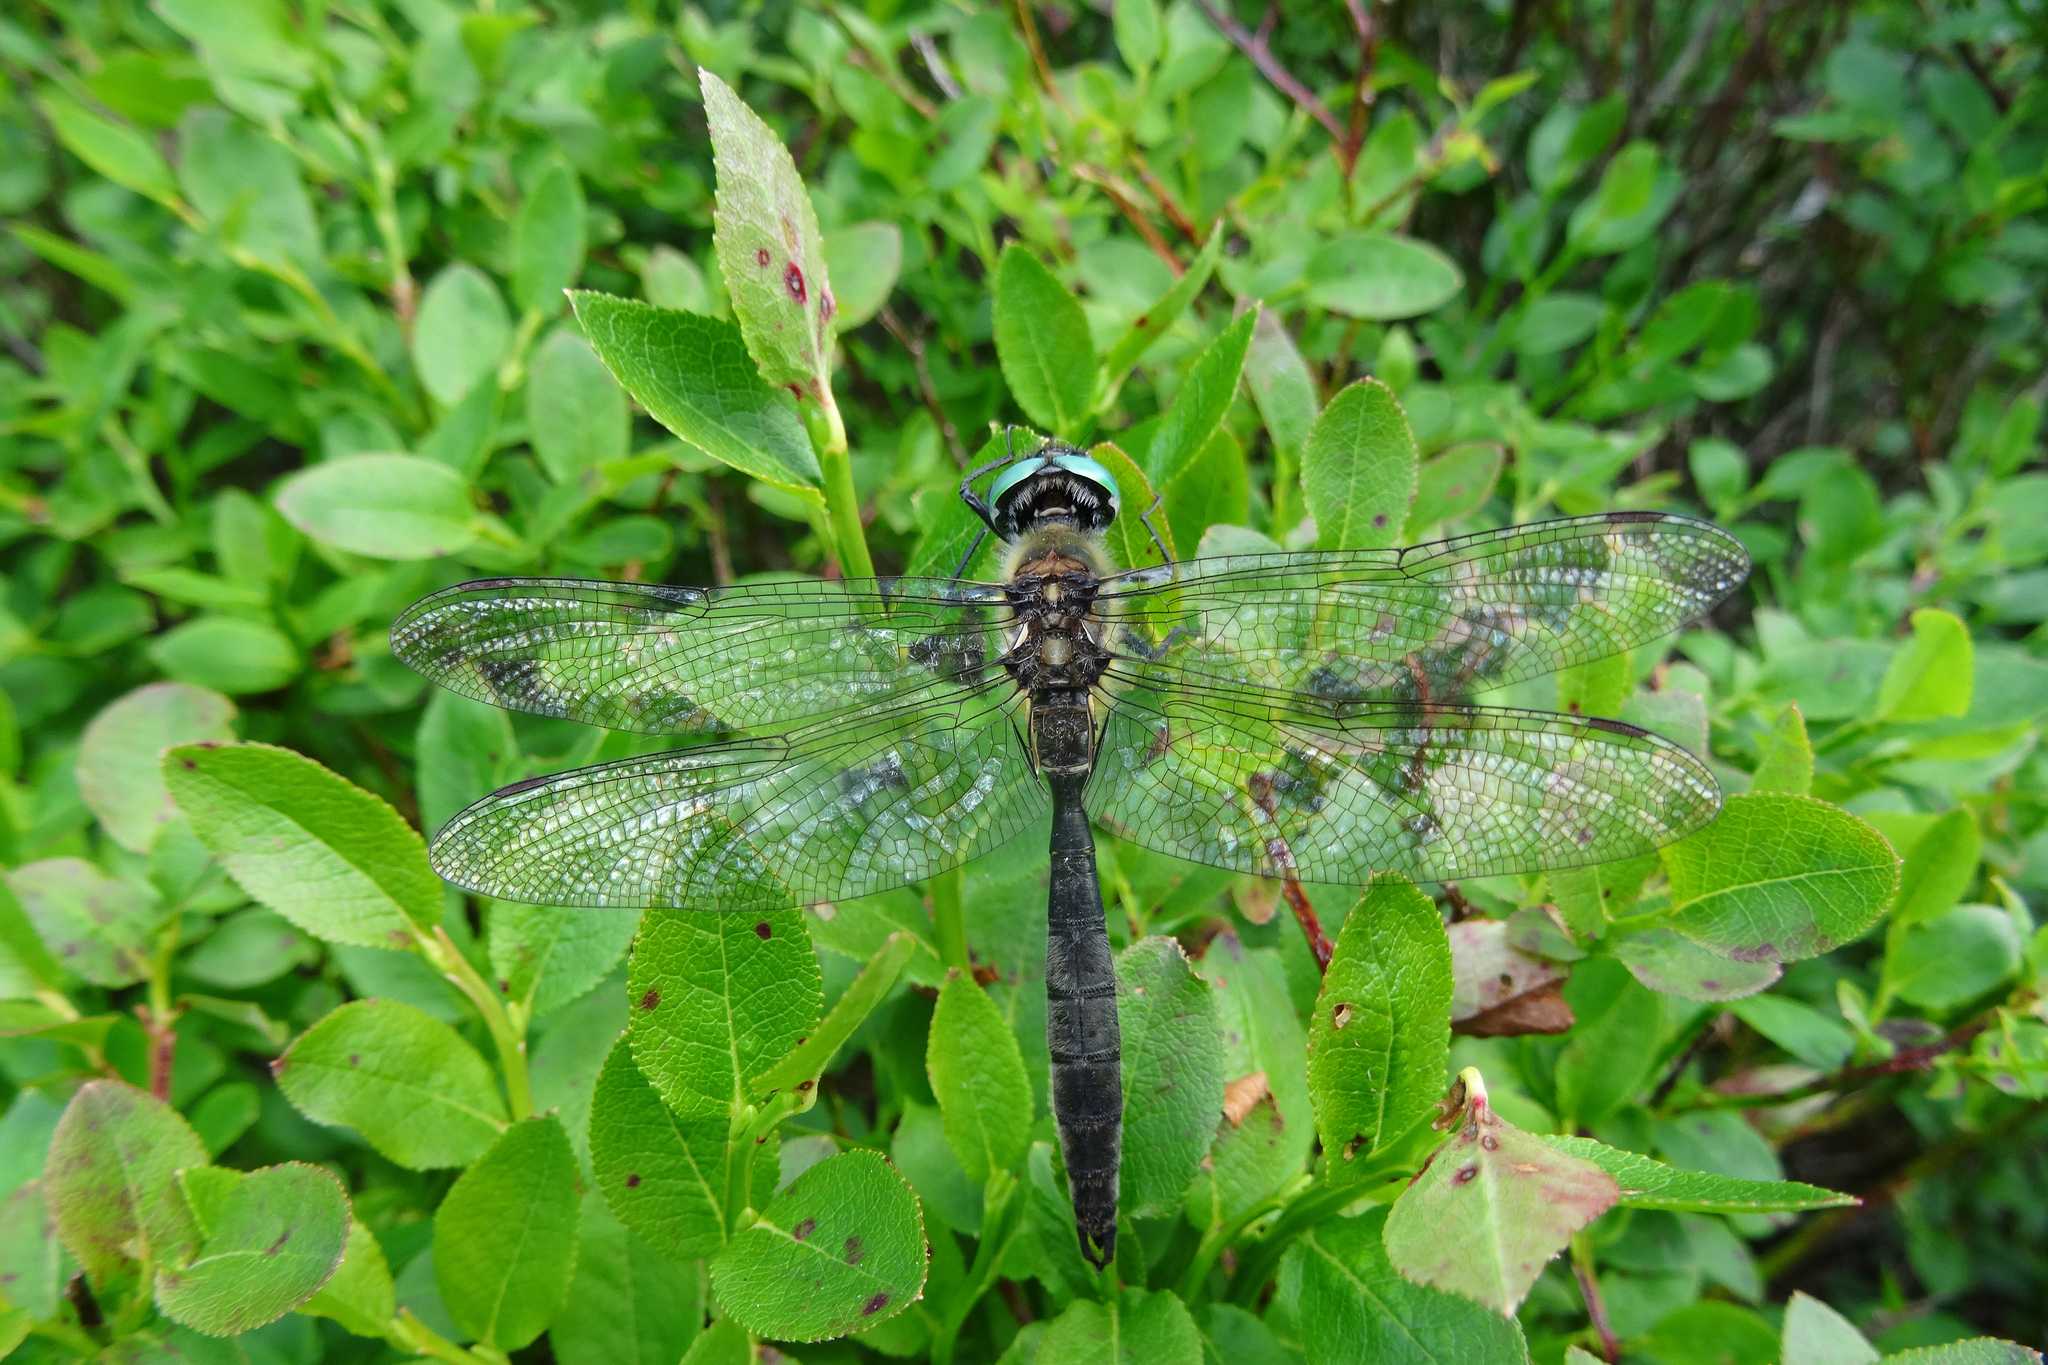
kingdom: Animalia
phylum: Arthropoda
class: Insecta
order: Odonata
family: Corduliidae
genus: Somatochlora
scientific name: Somatochlora alpestris
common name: Alpine emerald
